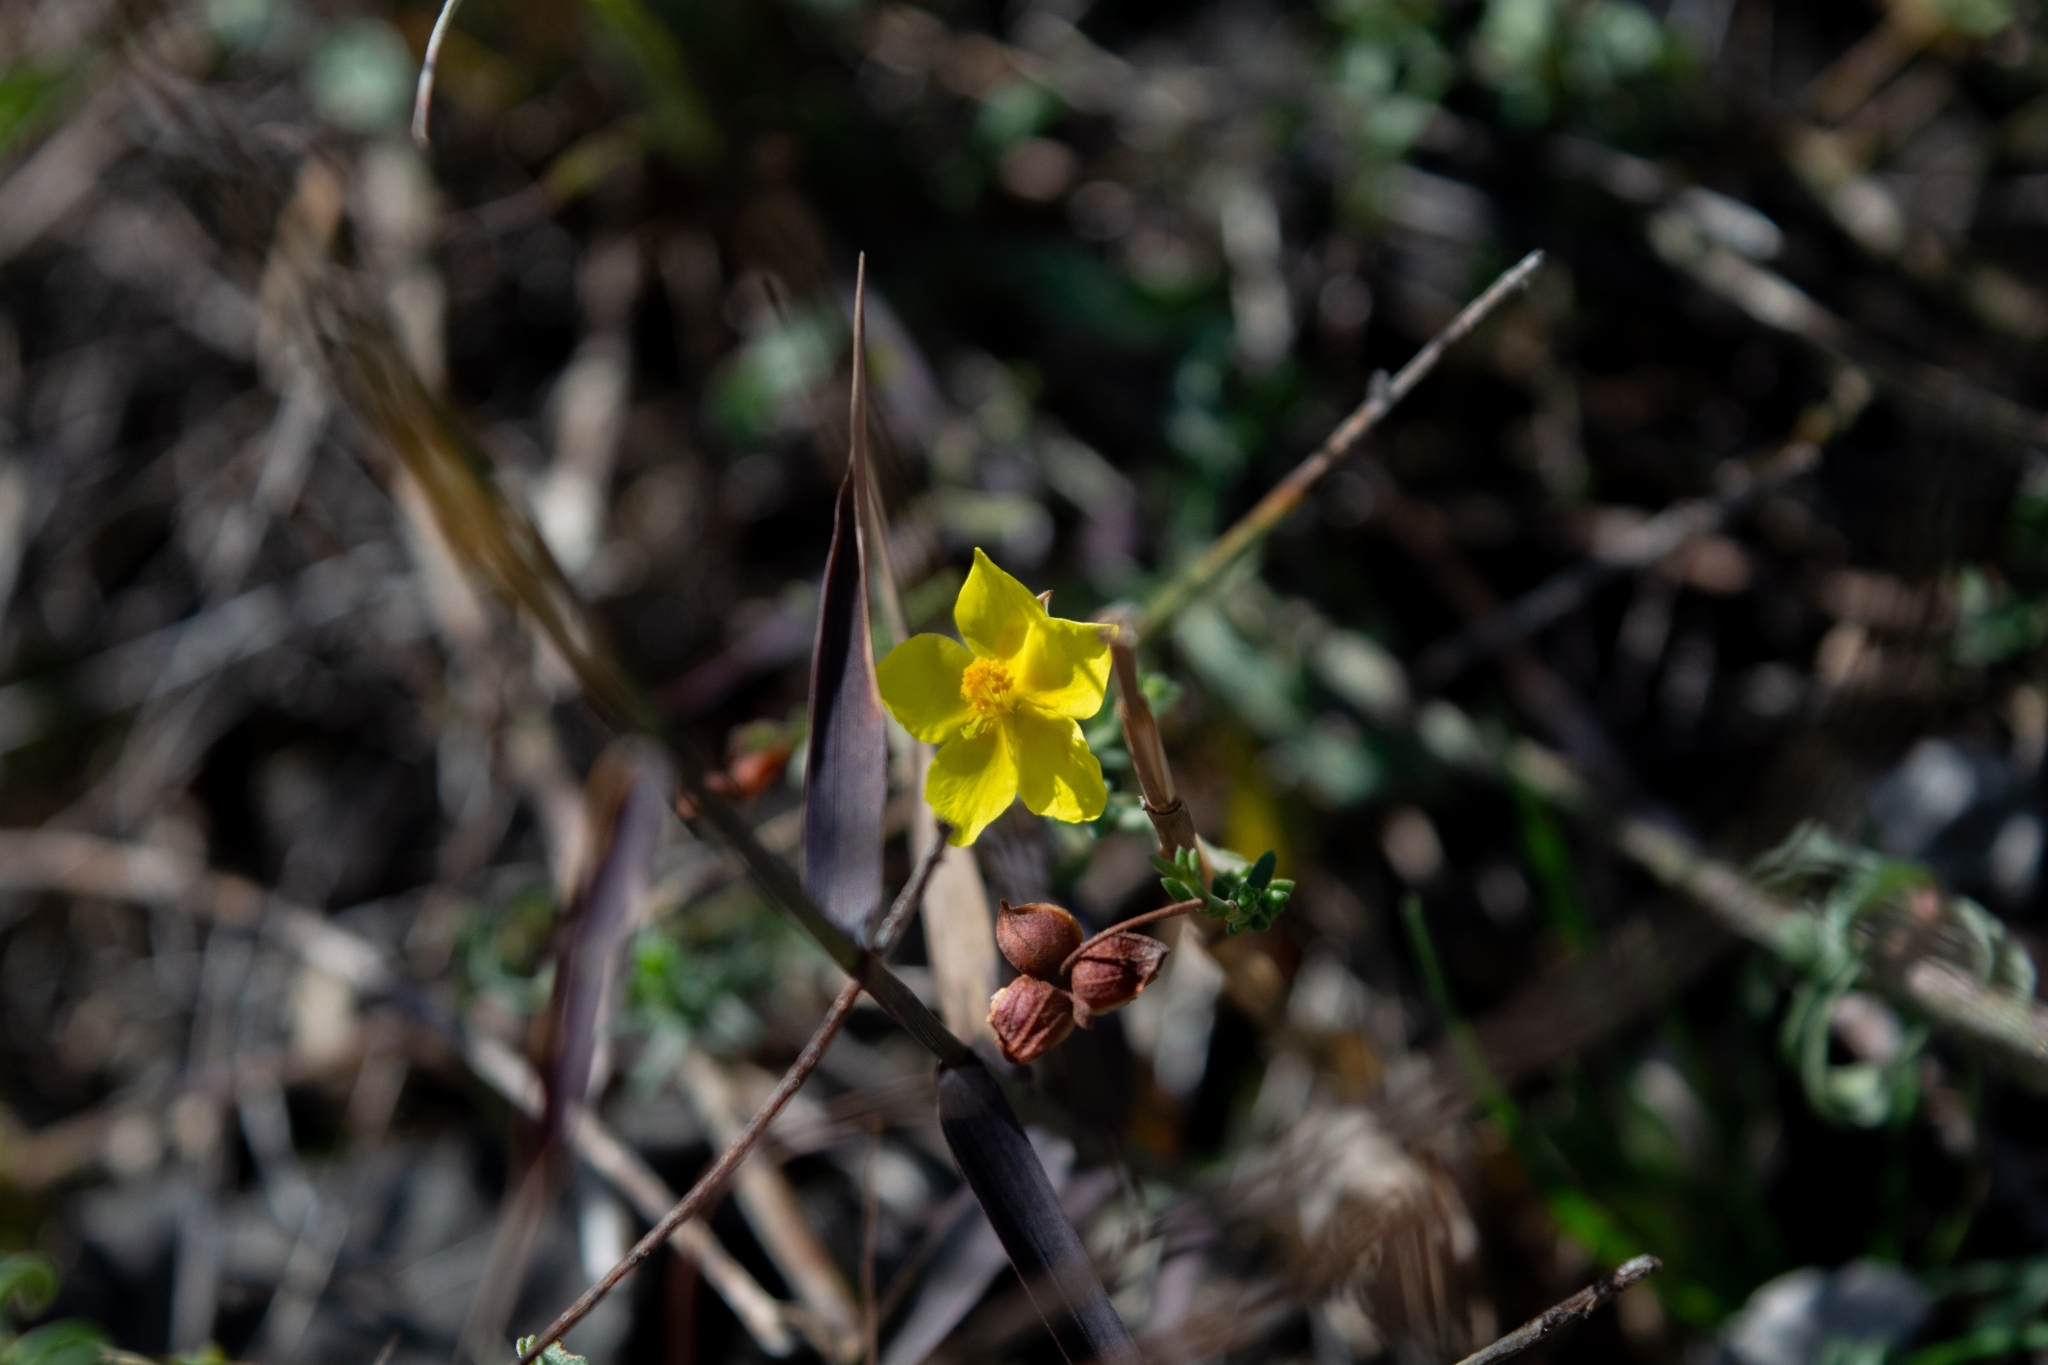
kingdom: Plantae
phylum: Tracheophyta
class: Magnoliopsida
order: Malvales
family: Cistaceae
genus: Fumana
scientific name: Fumana ericifolia
